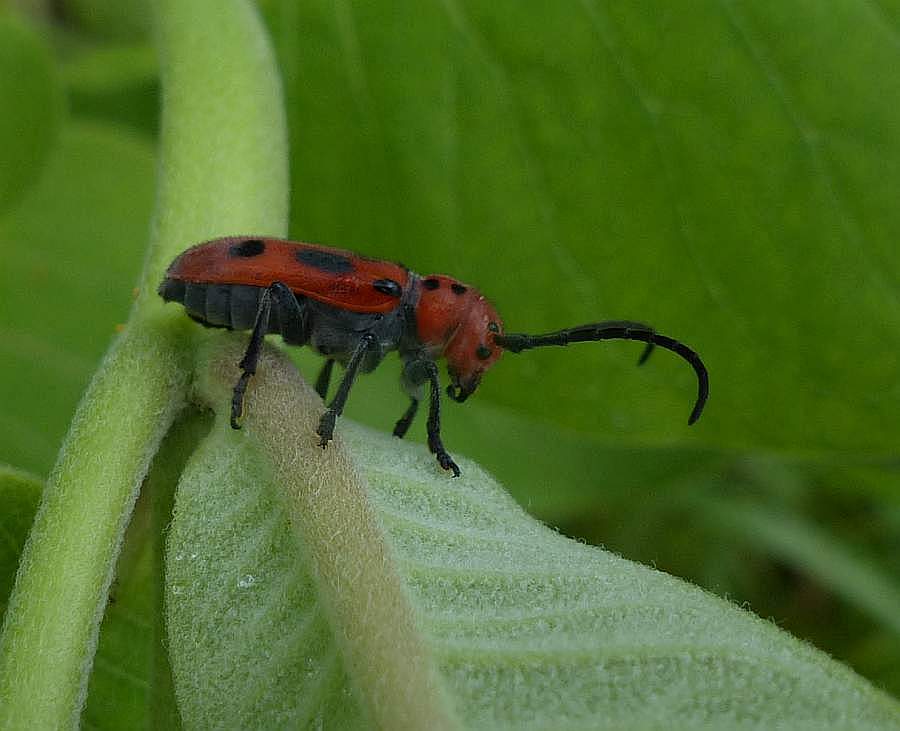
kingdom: Animalia
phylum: Arthropoda
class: Insecta
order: Coleoptera
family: Cerambycidae
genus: Tetraopes
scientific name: Tetraopes tetrophthalmus
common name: Red milkweed beetle
